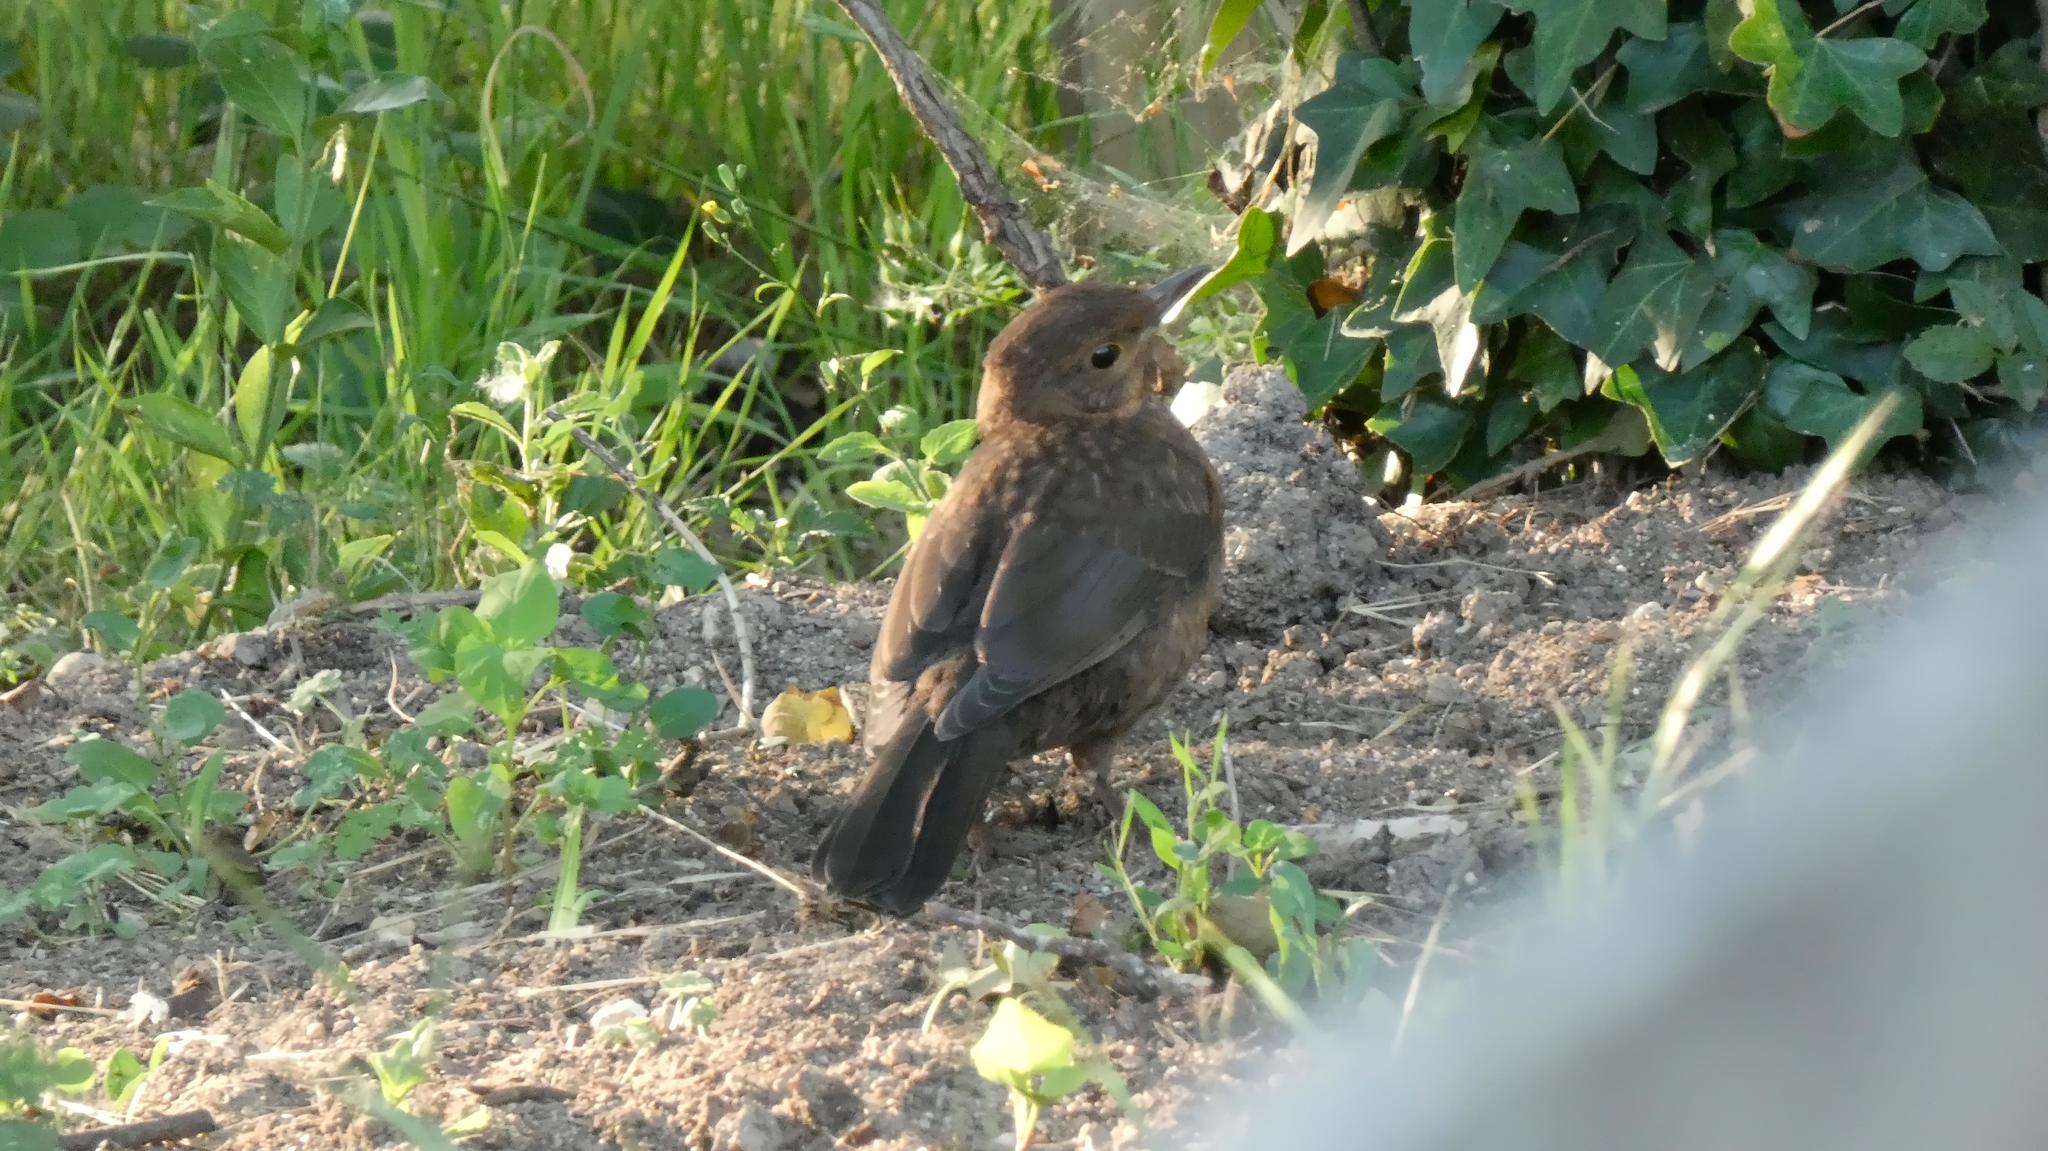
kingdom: Animalia
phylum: Chordata
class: Aves
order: Passeriformes
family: Turdidae
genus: Turdus
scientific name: Turdus merula
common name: Common blackbird
